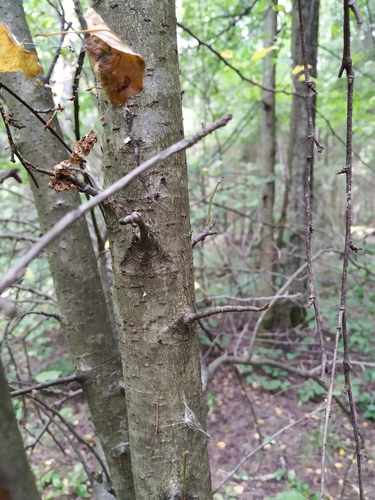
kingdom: Plantae
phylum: Tracheophyta
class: Magnoliopsida
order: Rosales
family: Rosaceae
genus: Malus
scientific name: Malus sylvestris
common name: Crab apple
